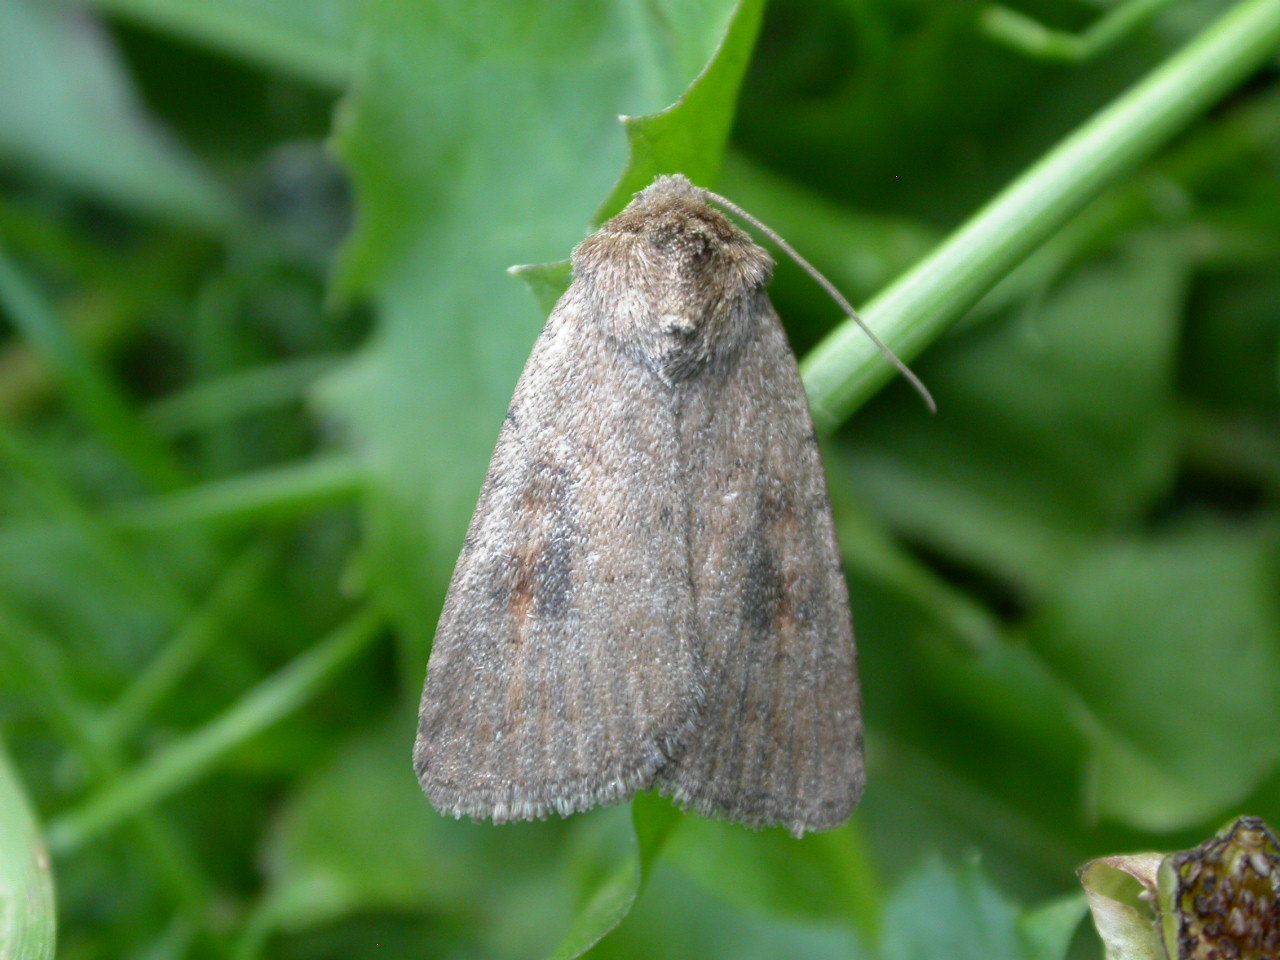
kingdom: Animalia
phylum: Arthropoda
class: Insecta
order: Lepidoptera
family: Noctuidae
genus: Caradrina
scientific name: Caradrina morpheus
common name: Mottled rustic
